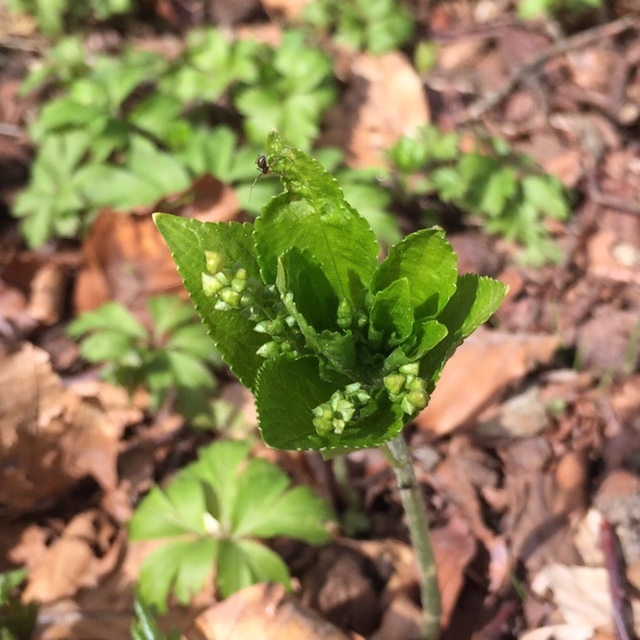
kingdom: Plantae
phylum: Tracheophyta
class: Magnoliopsida
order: Malpighiales
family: Euphorbiaceae
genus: Mercurialis
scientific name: Mercurialis perennis
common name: Dog mercury
